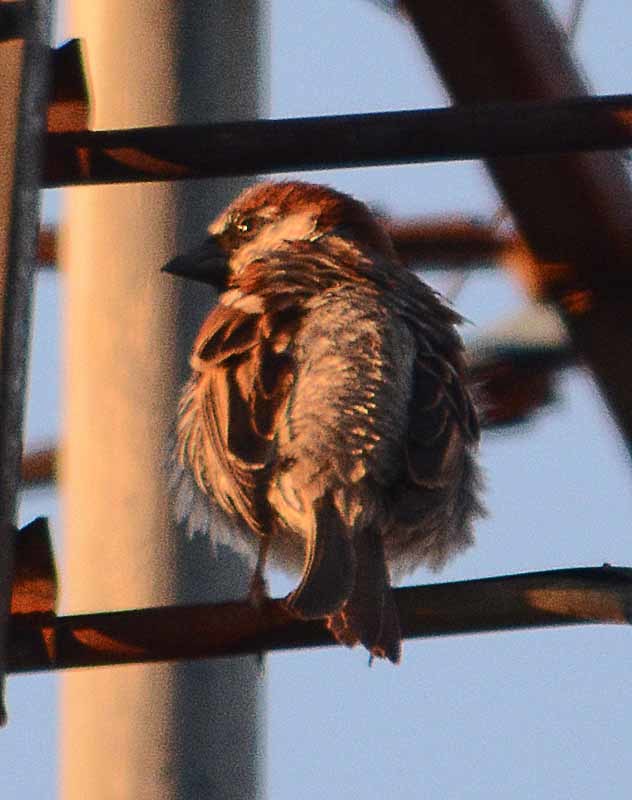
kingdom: Animalia
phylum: Chordata
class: Aves
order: Passeriformes
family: Passeridae
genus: Passer
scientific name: Passer domesticus
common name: House sparrow
